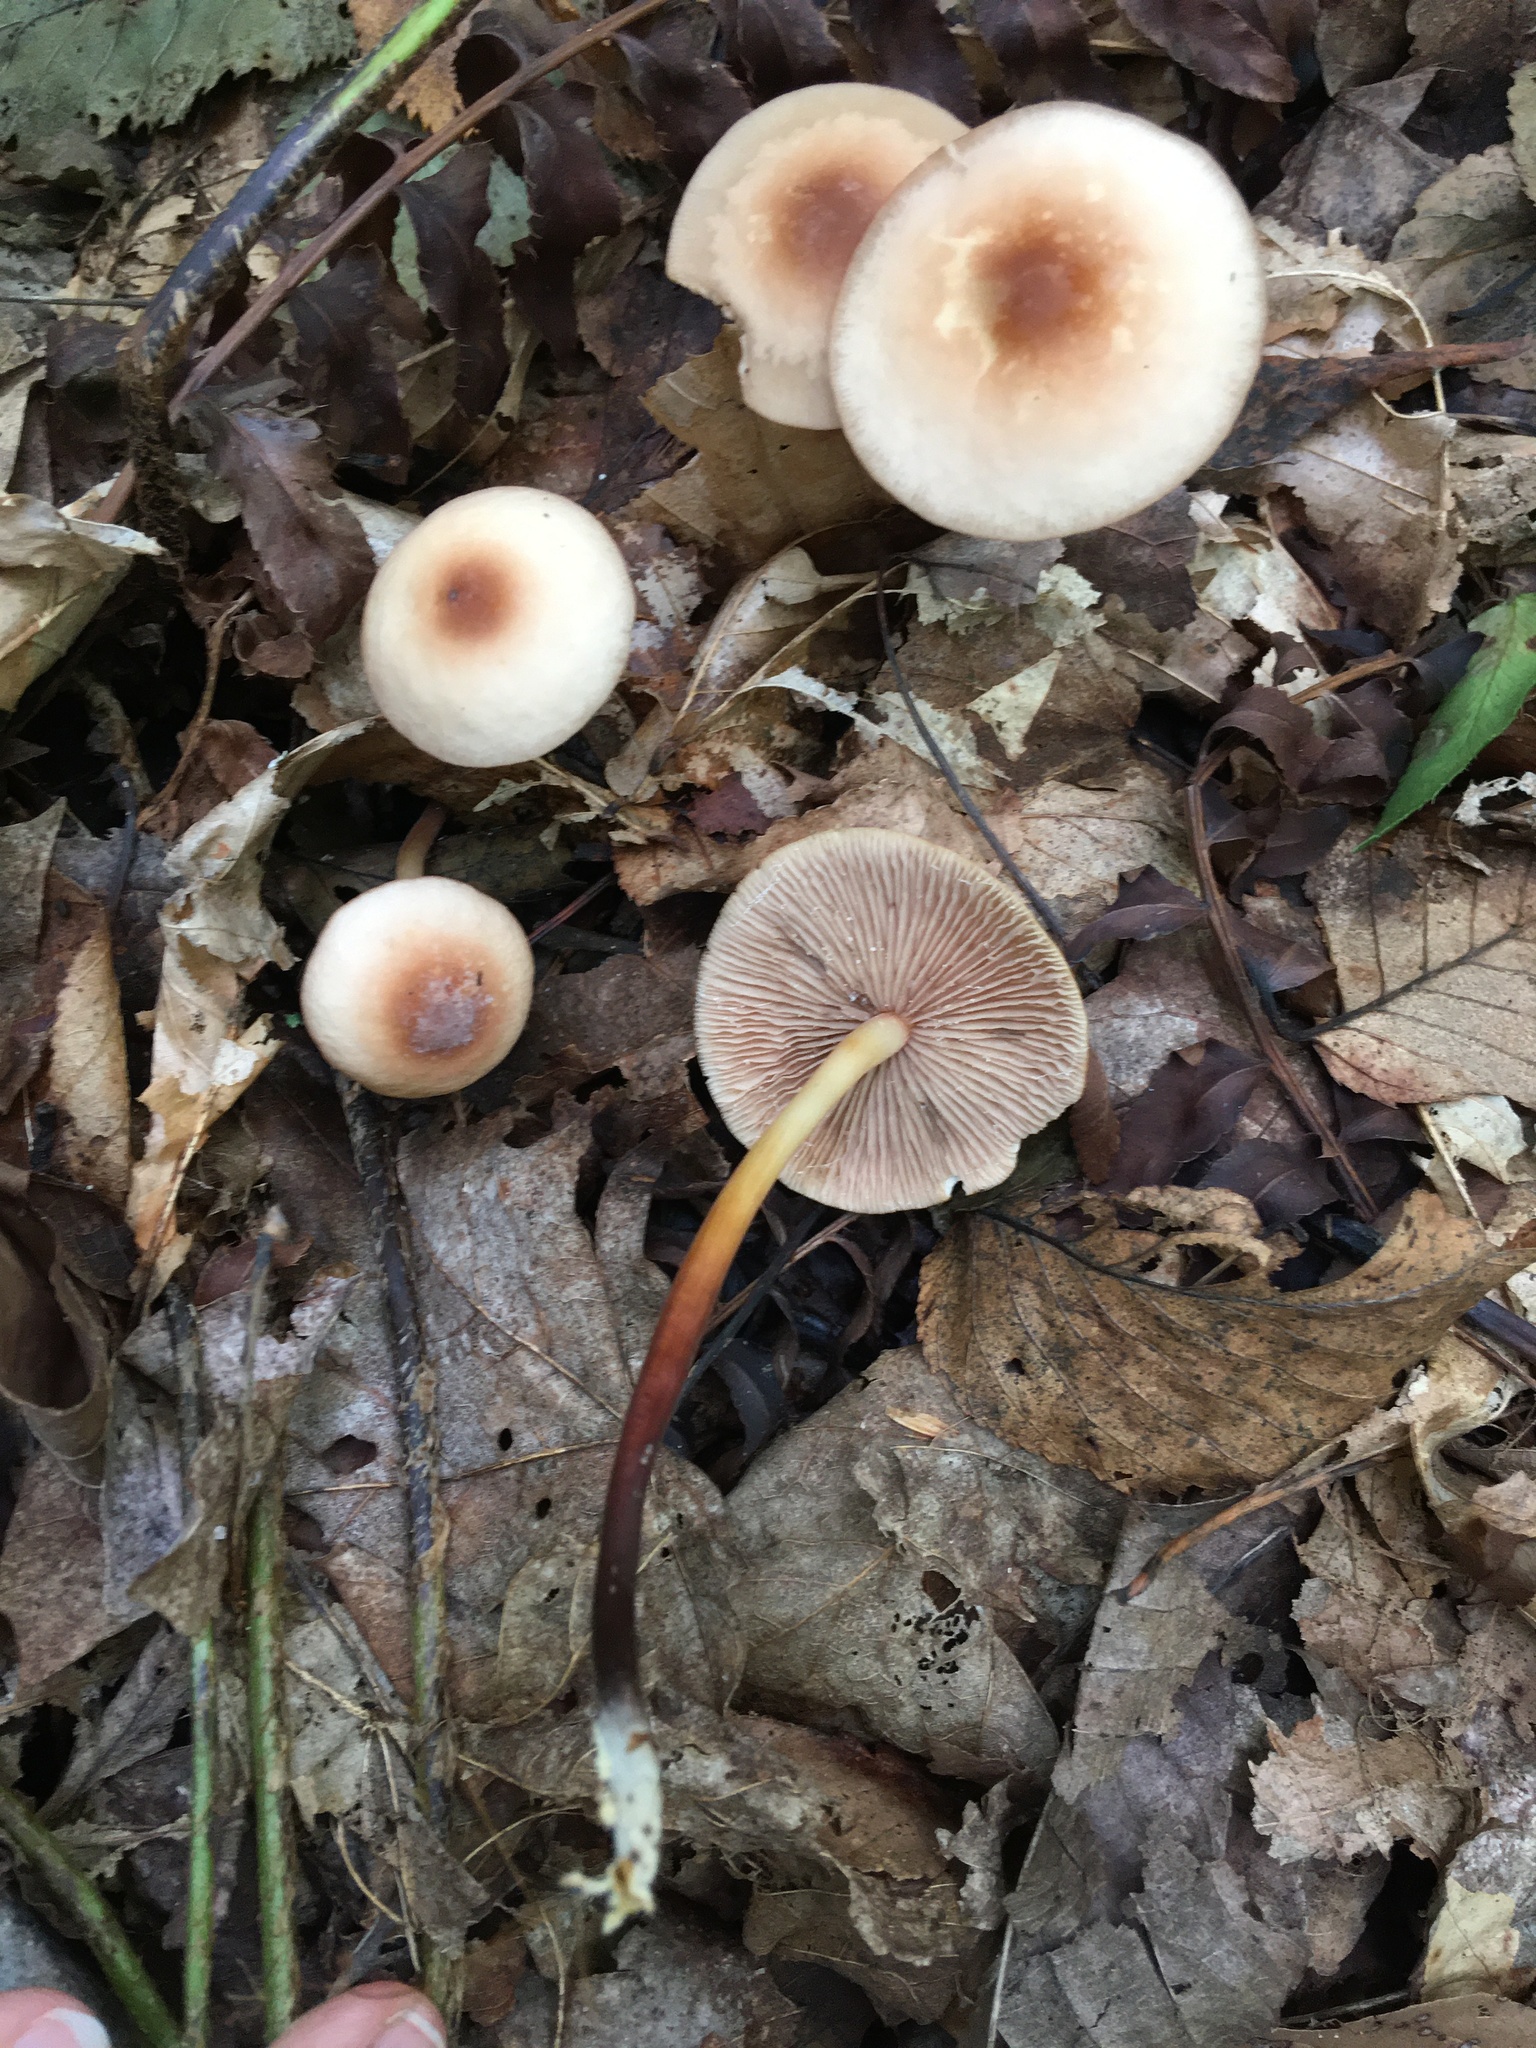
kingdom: Fungi
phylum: Basidiomycota
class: Agaricomycetes
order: Agaricales
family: Omphalotaceae
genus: Gymnopus
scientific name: Gymnopus lachnophyllus
